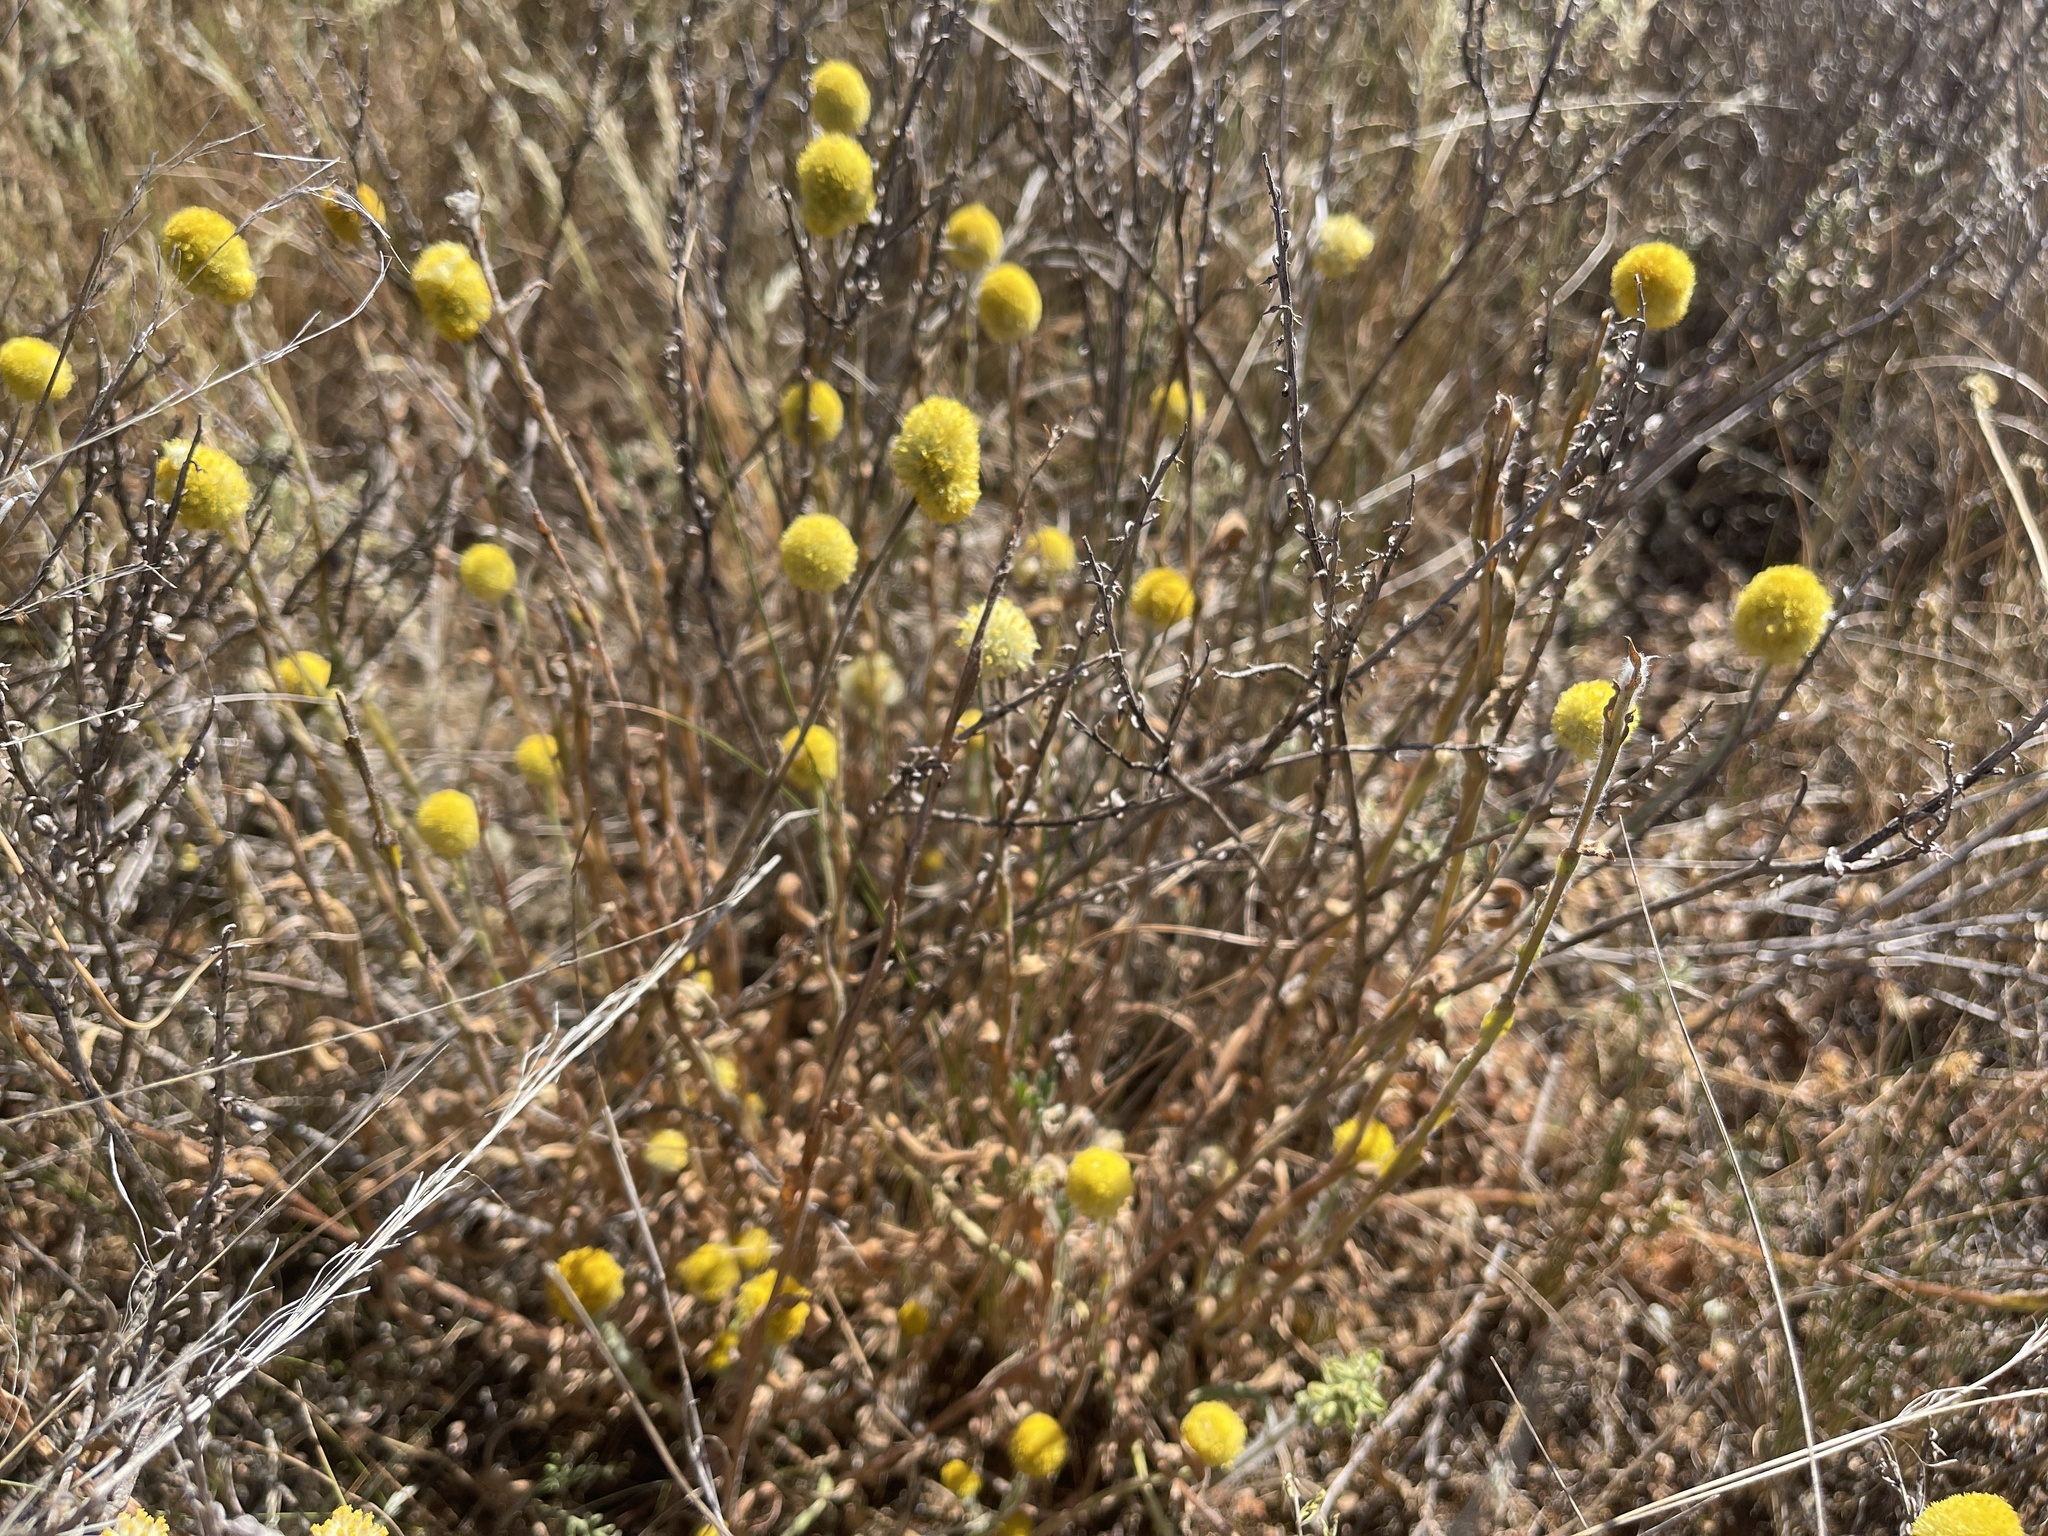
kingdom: Plantae
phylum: Tracheophyta
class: Magnoliopsida
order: Asterales
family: Asteraceae
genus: Pycnosorus
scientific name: Pycnosorus pleiocephalus
